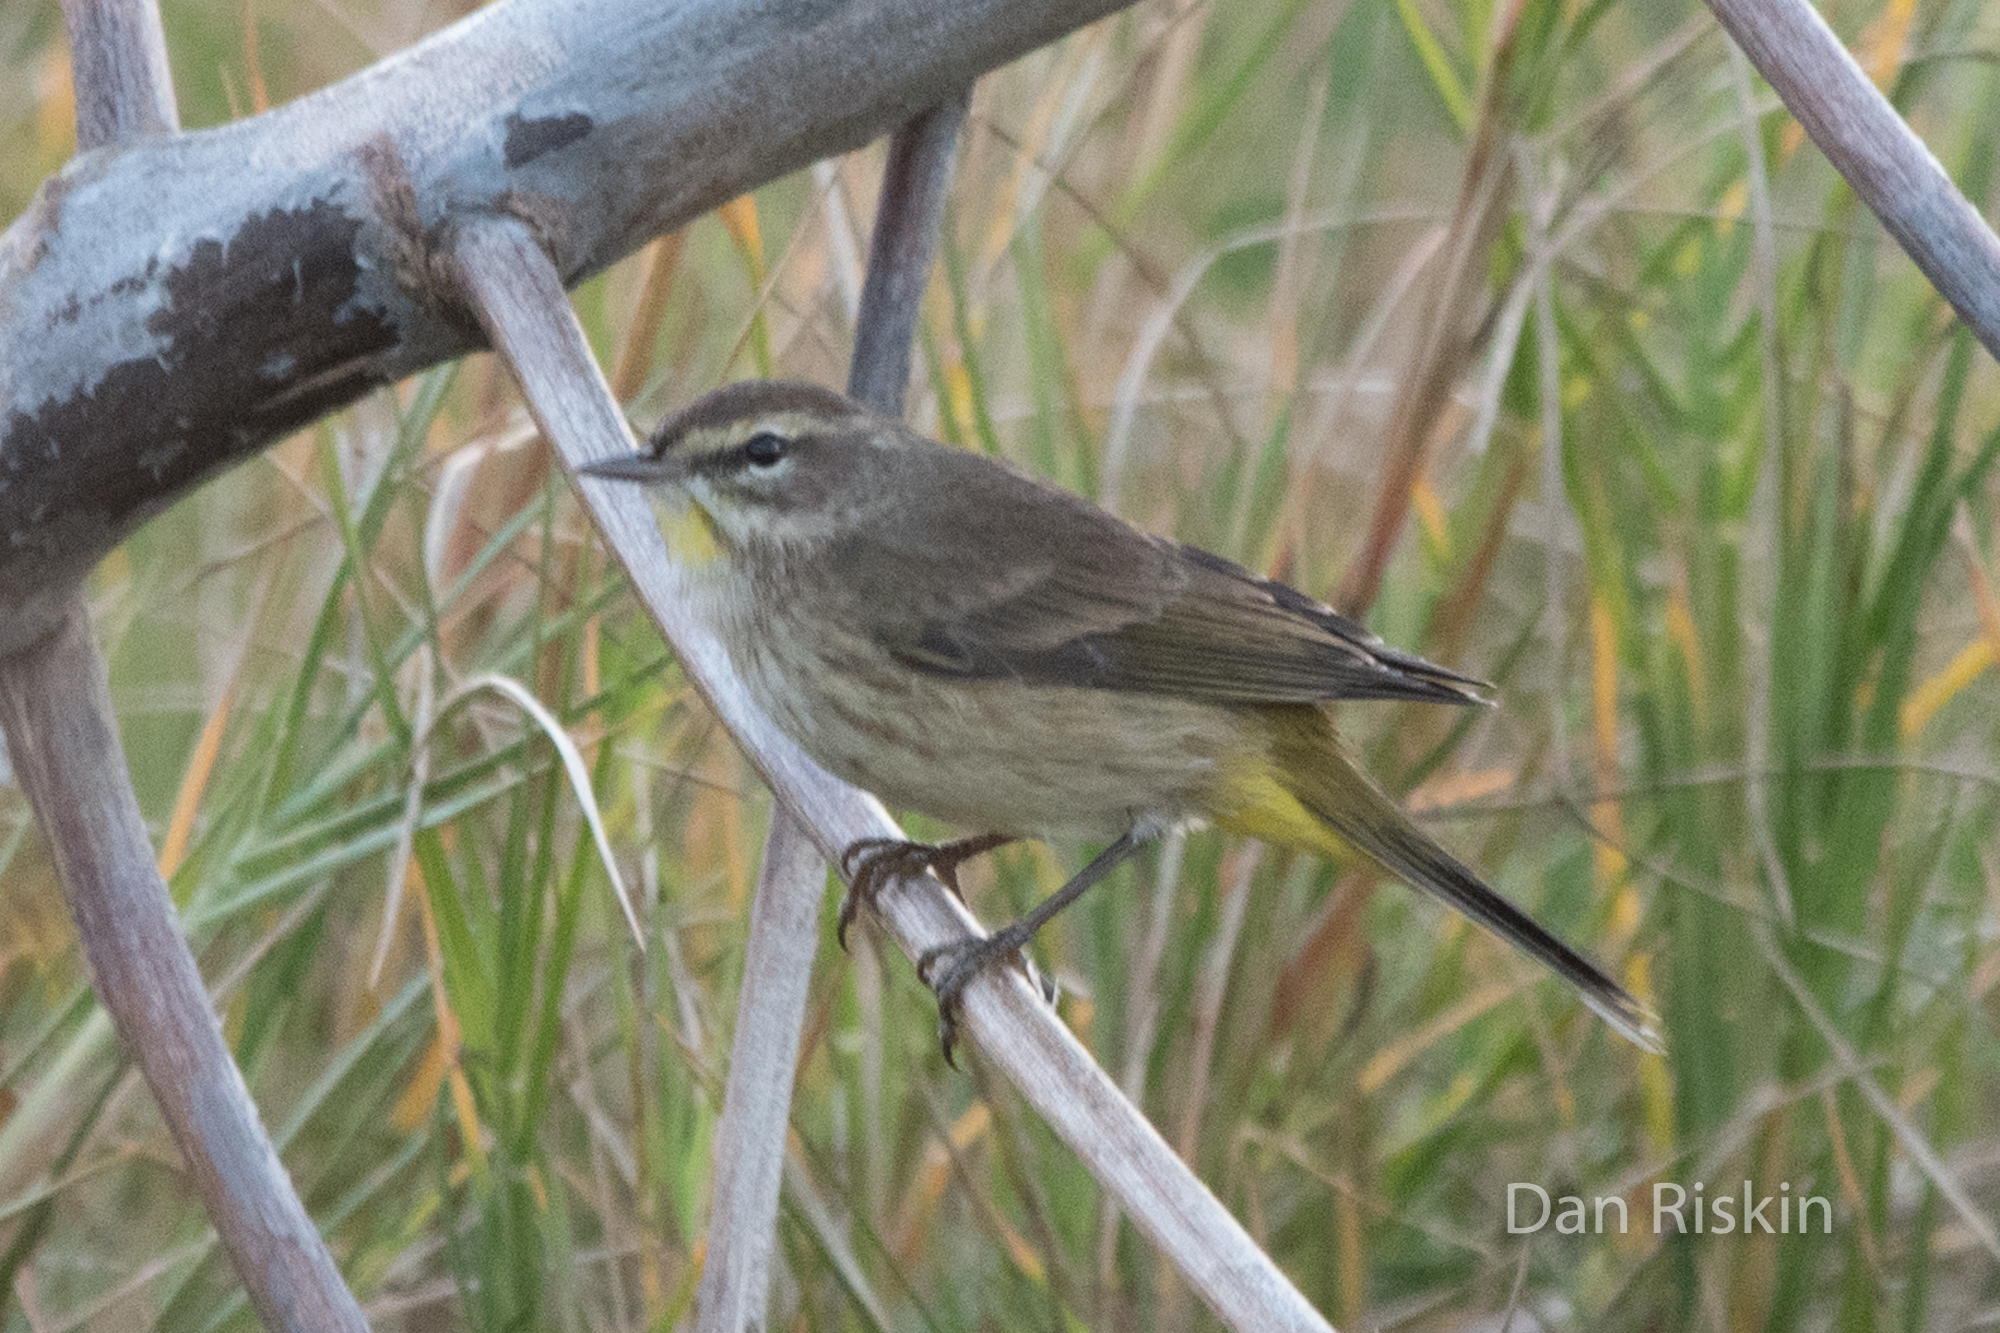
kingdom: Animalia
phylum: Chordata
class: Aves
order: Passeriformes
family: Parulidae
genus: Setophaga
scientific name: Setophaga palmarum
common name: Palm warbler
